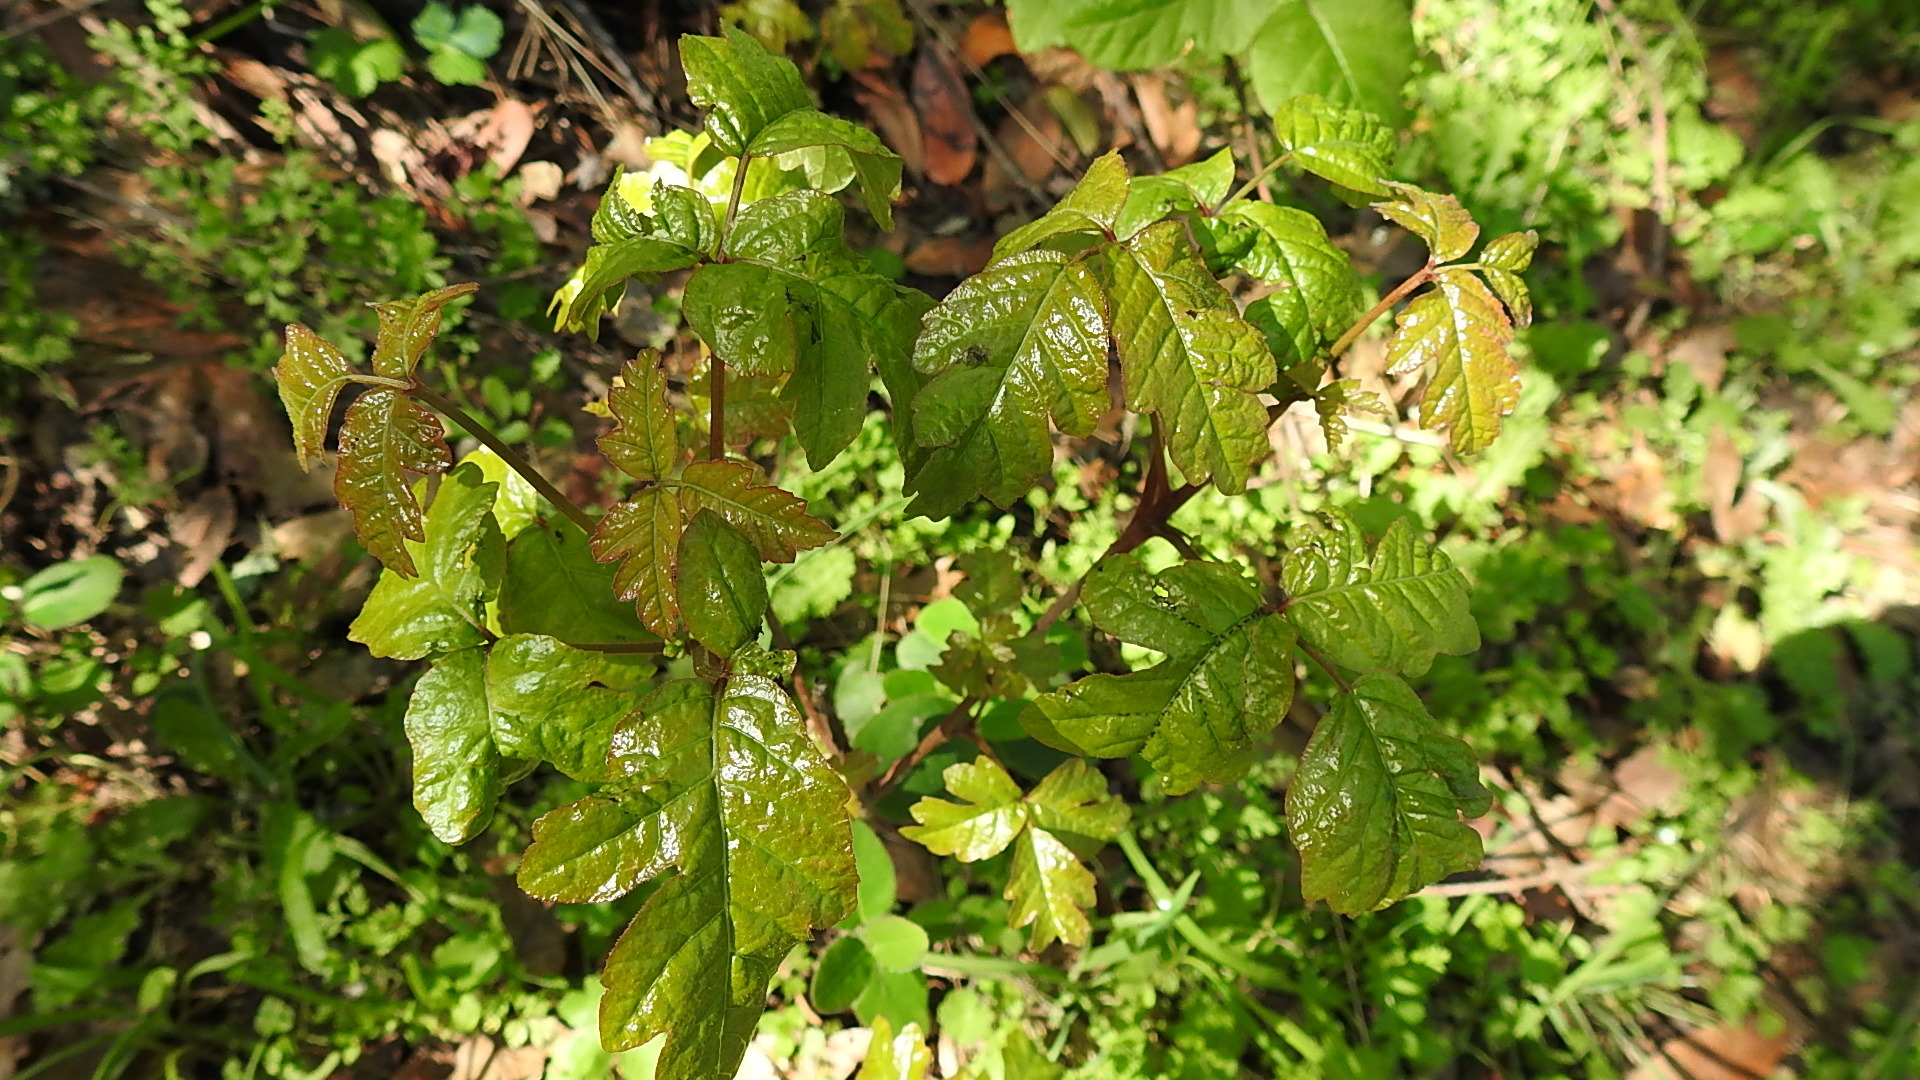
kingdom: Plantae
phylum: Tracheophyta
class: Magnoliopsida
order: Sapindales
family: Anacardiaceae
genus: Toxicodendron
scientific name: Toxicodendron diversilobum
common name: Pacific poison-oak
